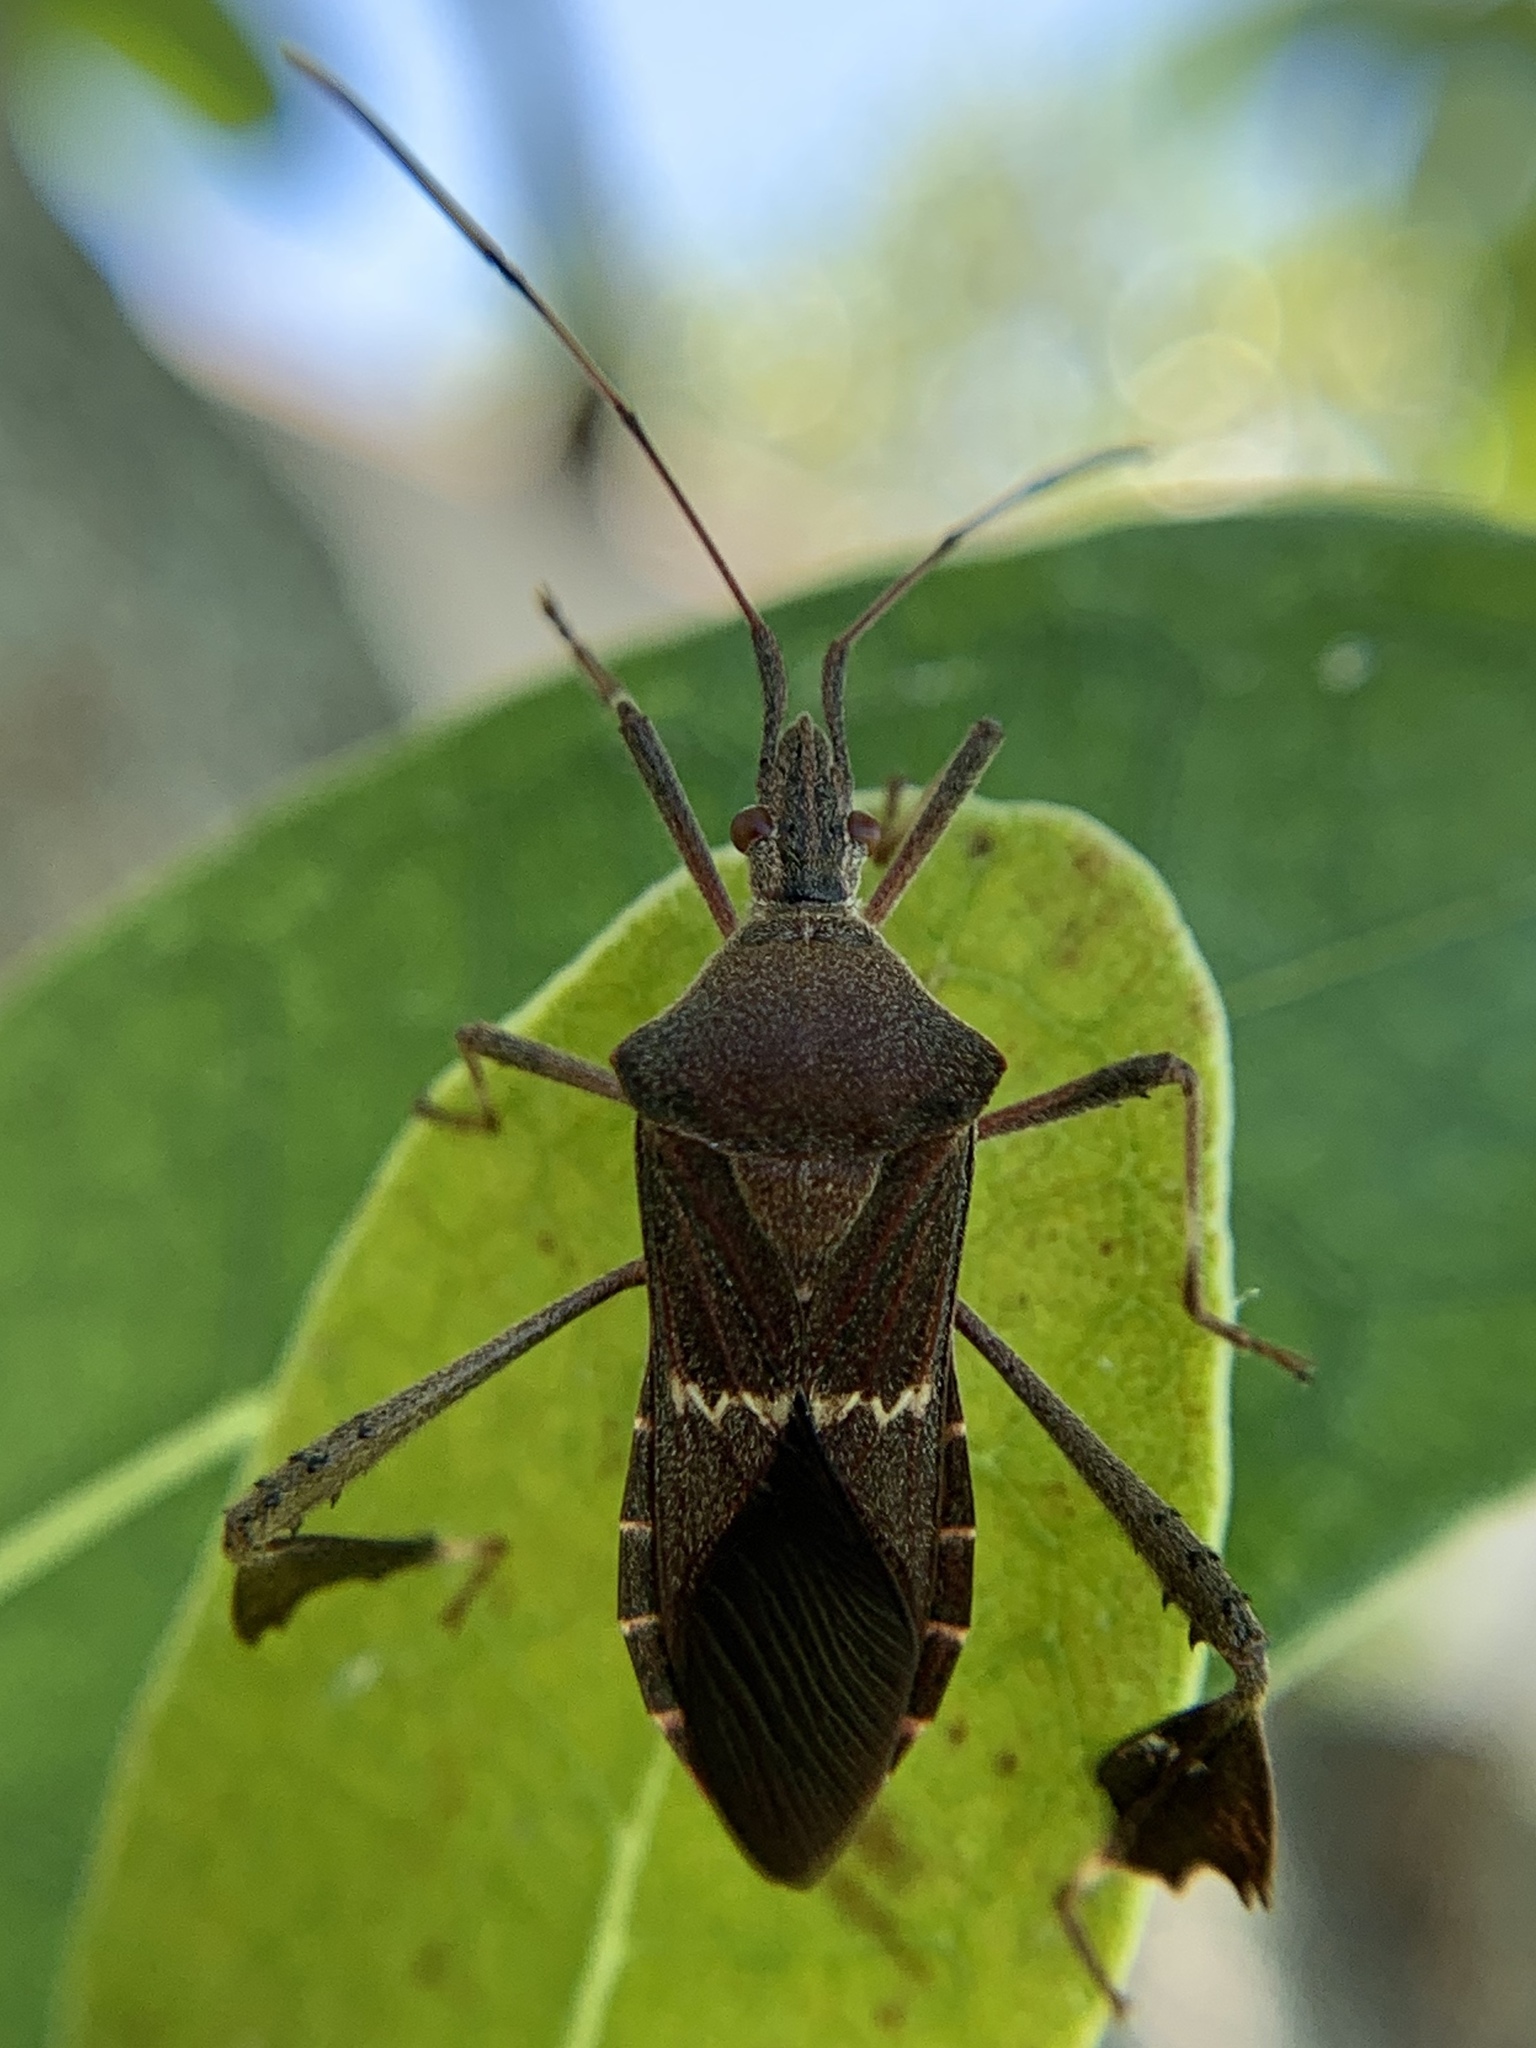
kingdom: Animalia
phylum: Arthropoda
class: Insecta
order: Hemiptera
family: Coreidae
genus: Leptoglossus
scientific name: Leptoglossus concolor
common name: Leaf-footed bug
